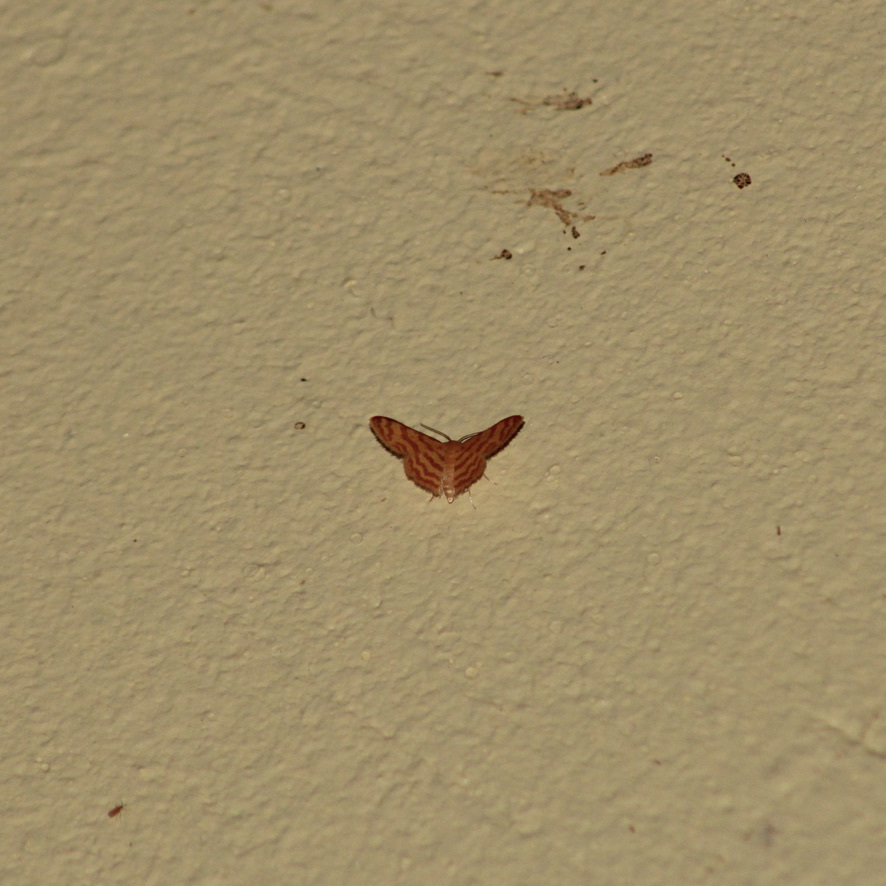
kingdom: Animalia
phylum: Arthropoda
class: Insecta
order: Lepidoptera
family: Geometridae
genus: Tricentrogyna
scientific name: Tricentrogyna deportata
